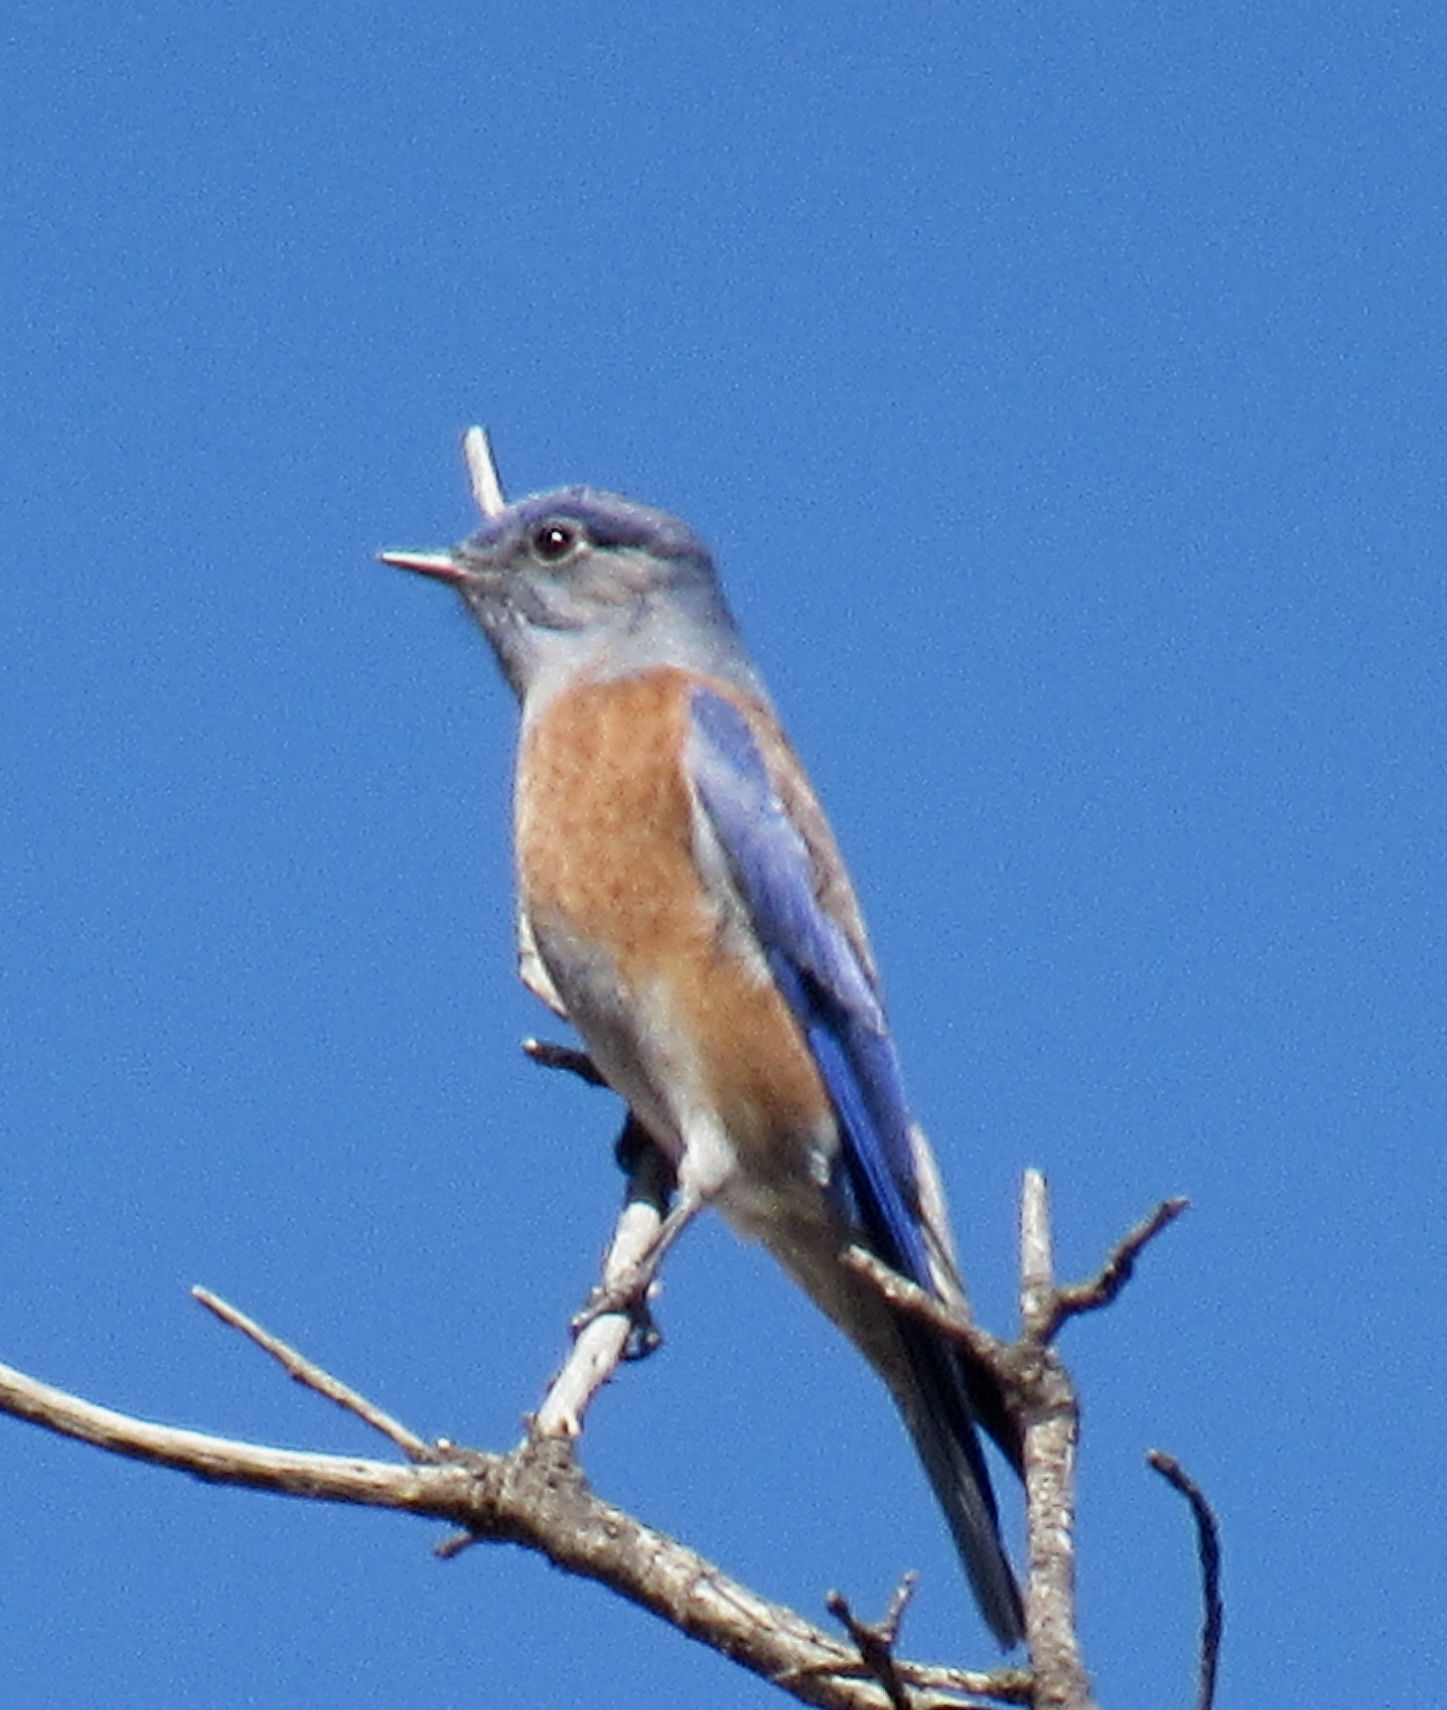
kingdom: Animalia
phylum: Chordata
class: Aves
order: Passeriformes
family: Turdidae
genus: Sialia
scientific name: Sialia mexicana
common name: Western bluebird
